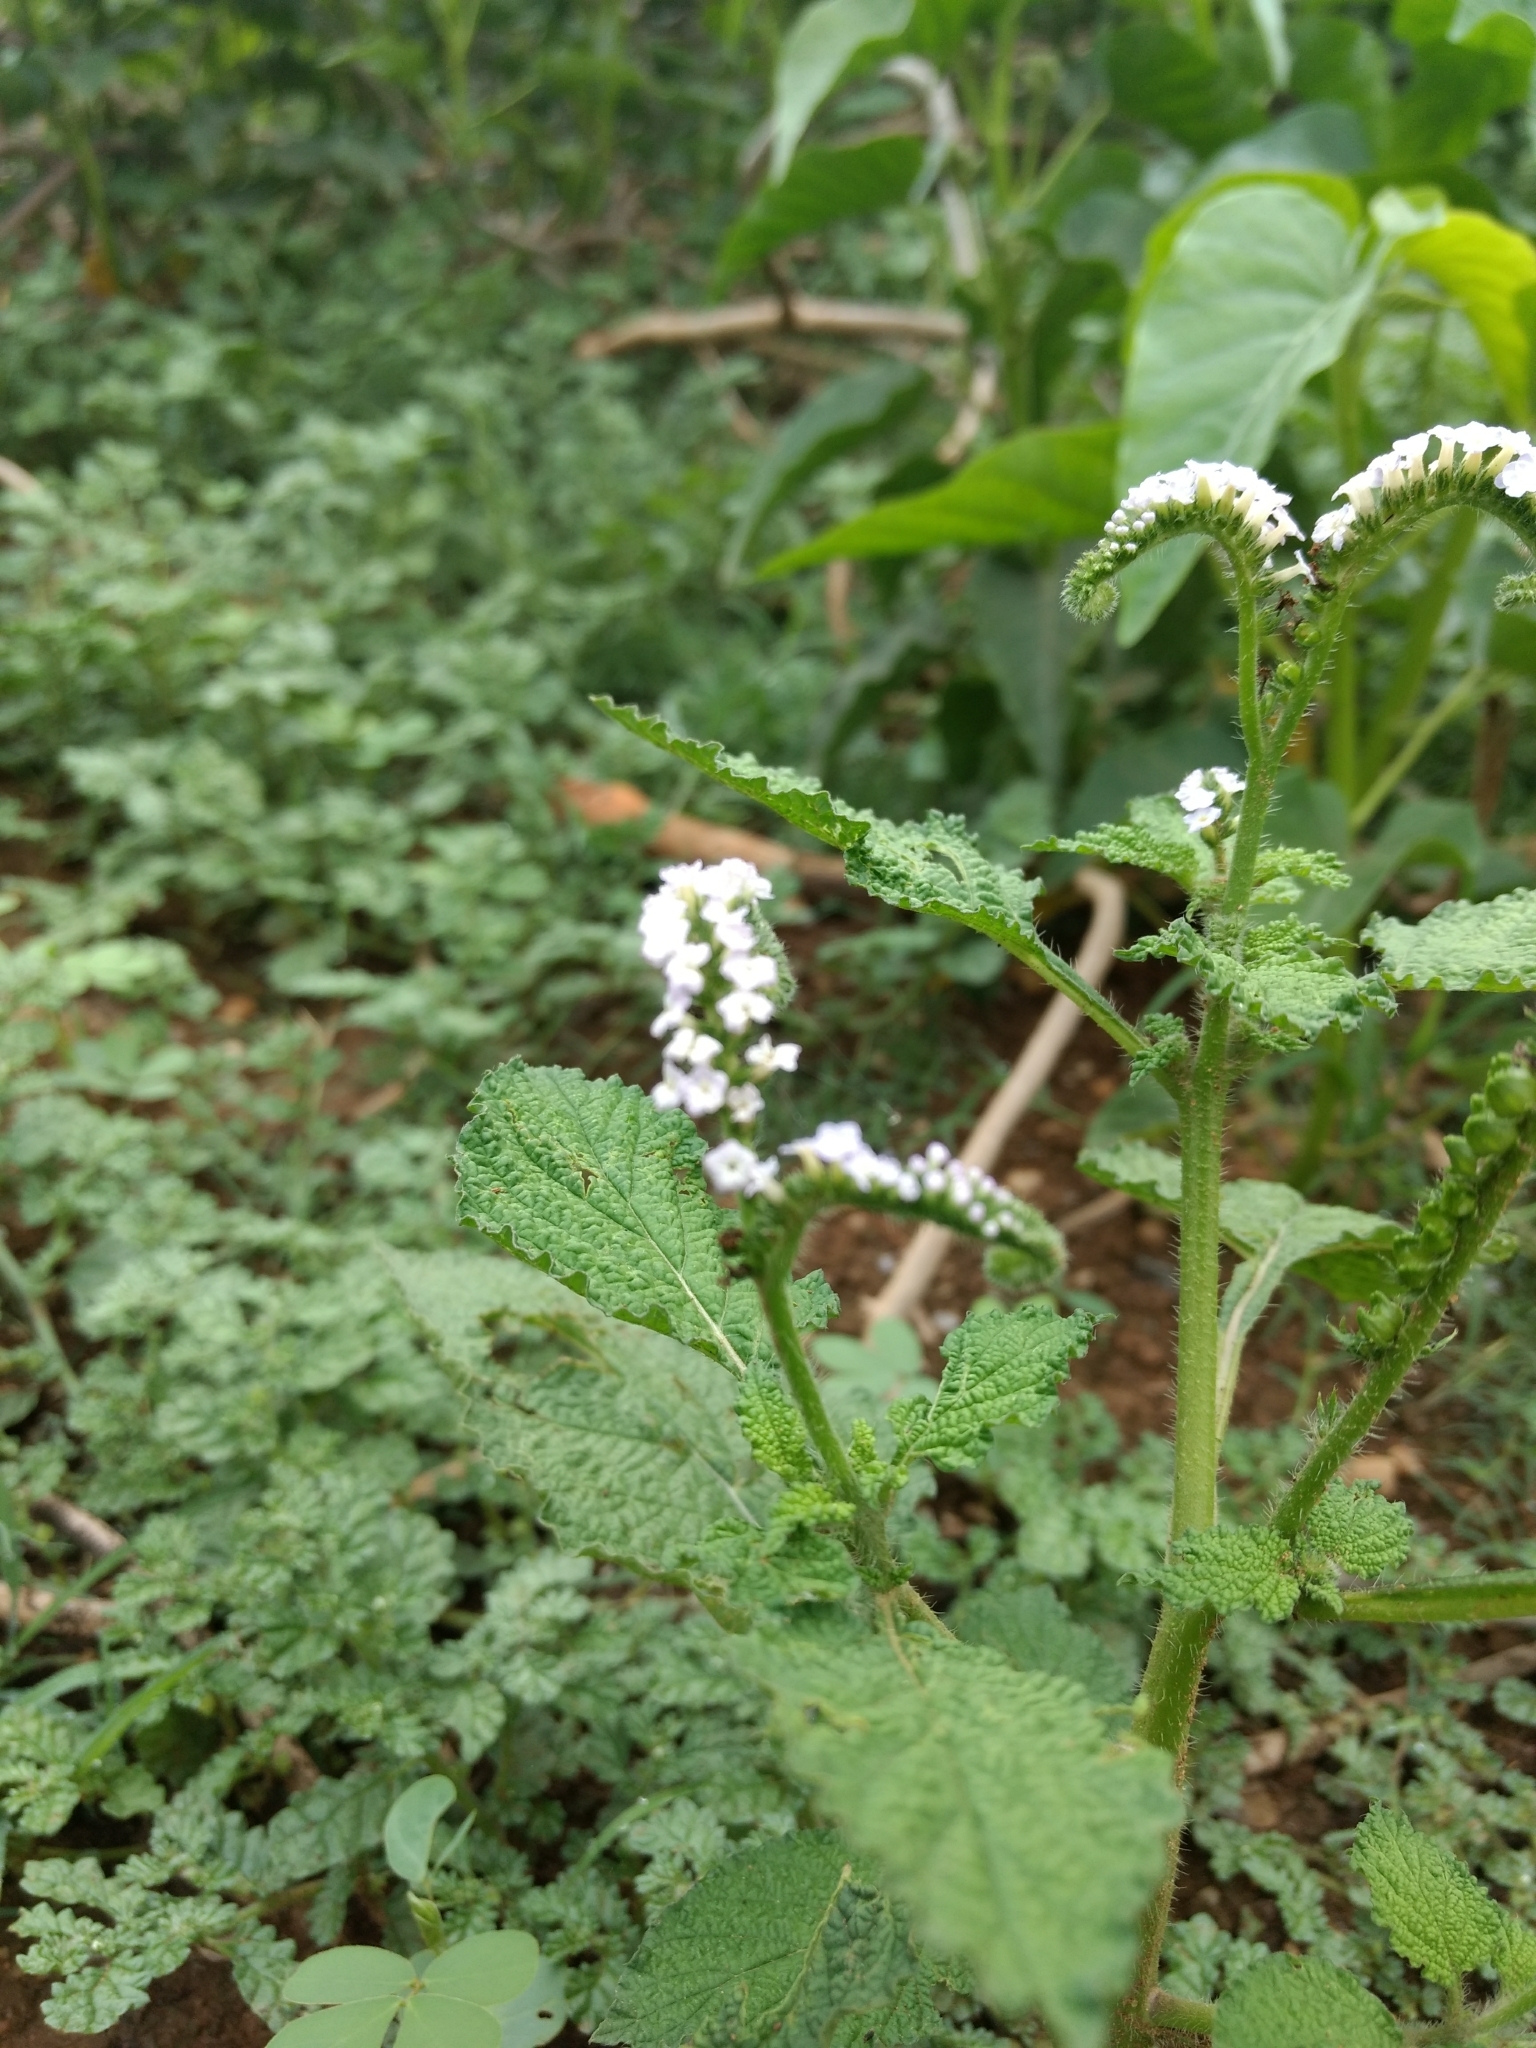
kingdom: Plantae
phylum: Tracheophyta
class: Magnoliopsida
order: Boraginales
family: Heliotropiaceae
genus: Heliotropium
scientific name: Heliotropium indicum
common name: Indian heliotrope
